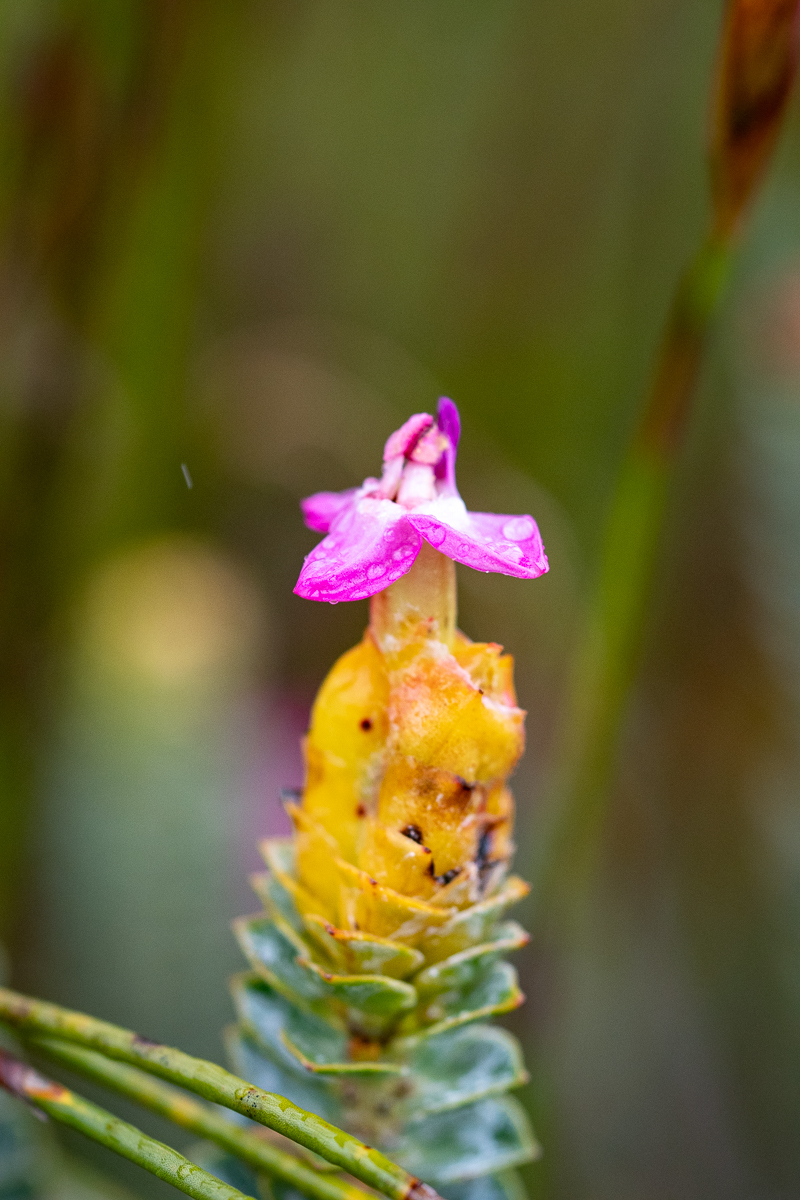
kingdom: Plantae
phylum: Tracheophyta
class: Magnoliopsida
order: Myrtales
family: Penaeaceae
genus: Saltera
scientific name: Saltera sarcocolla
